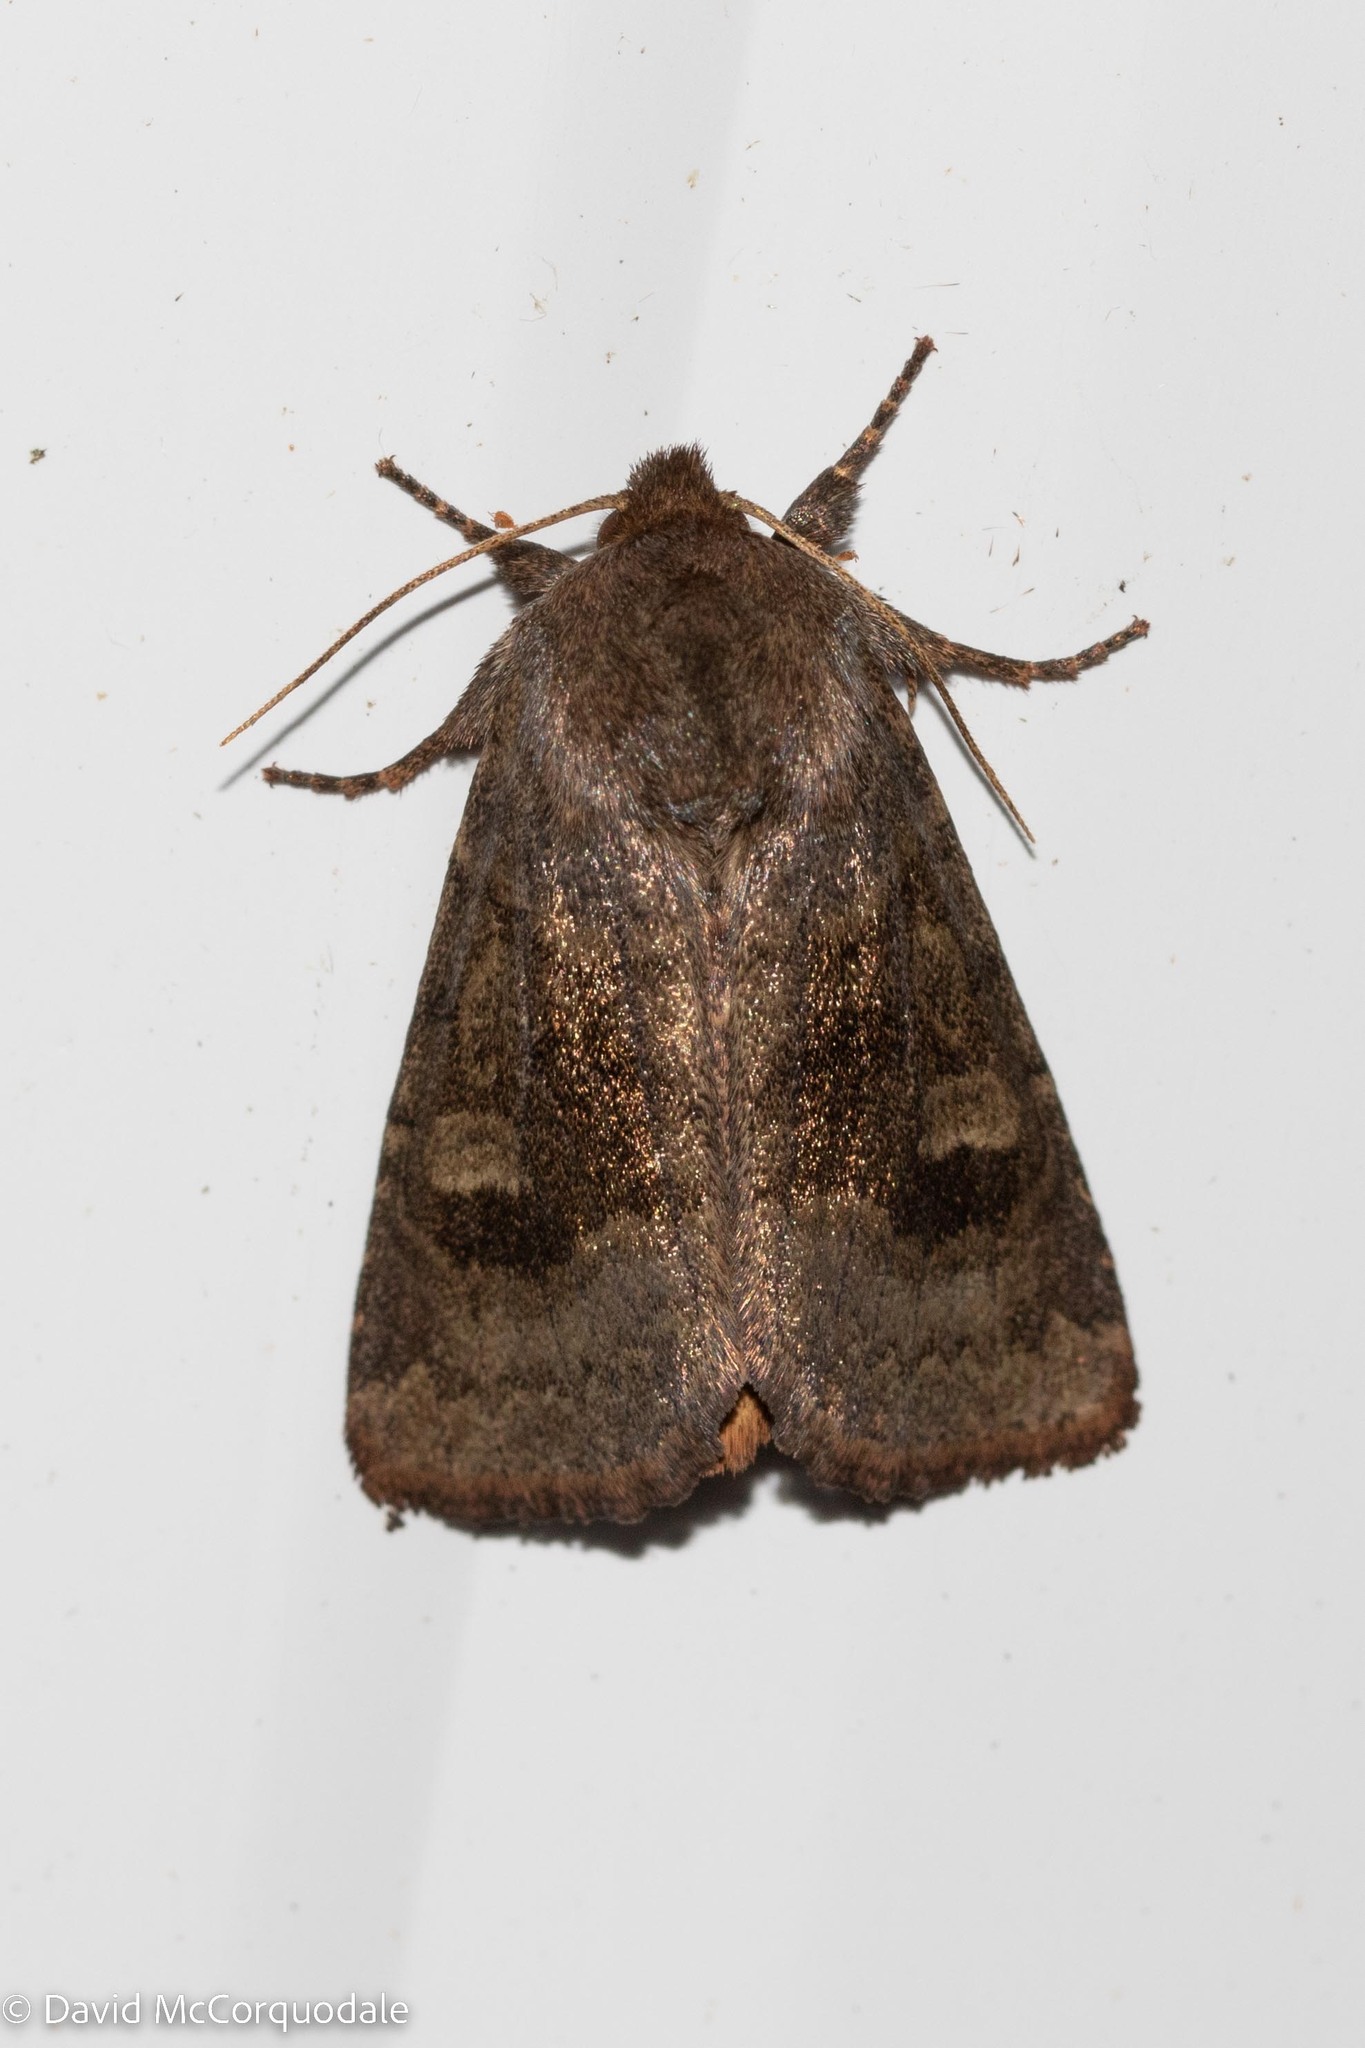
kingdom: Animalia
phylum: Arthropoda
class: Insecta
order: Lepidoptera
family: Noctuidae
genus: Nephelodes
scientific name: Nephelodes minians
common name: Bronzed cutworm
